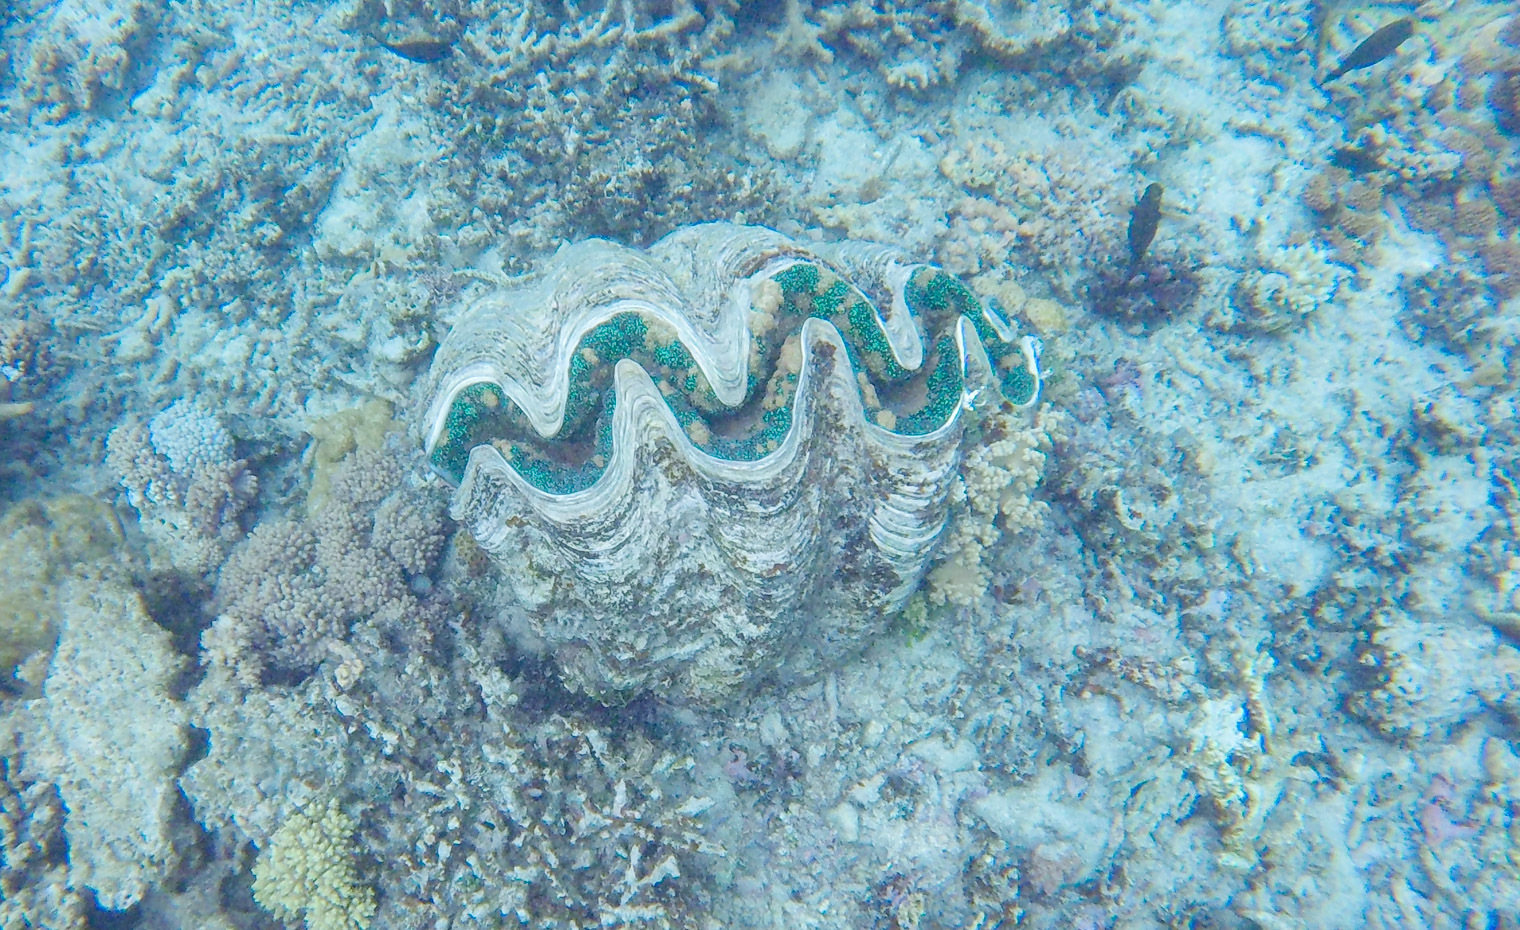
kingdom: Animalia
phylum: Mollusca
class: Bivalvia
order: Cardiida
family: Cardiidae
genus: Tridacna
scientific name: Tridacna gigas
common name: Giant clam
